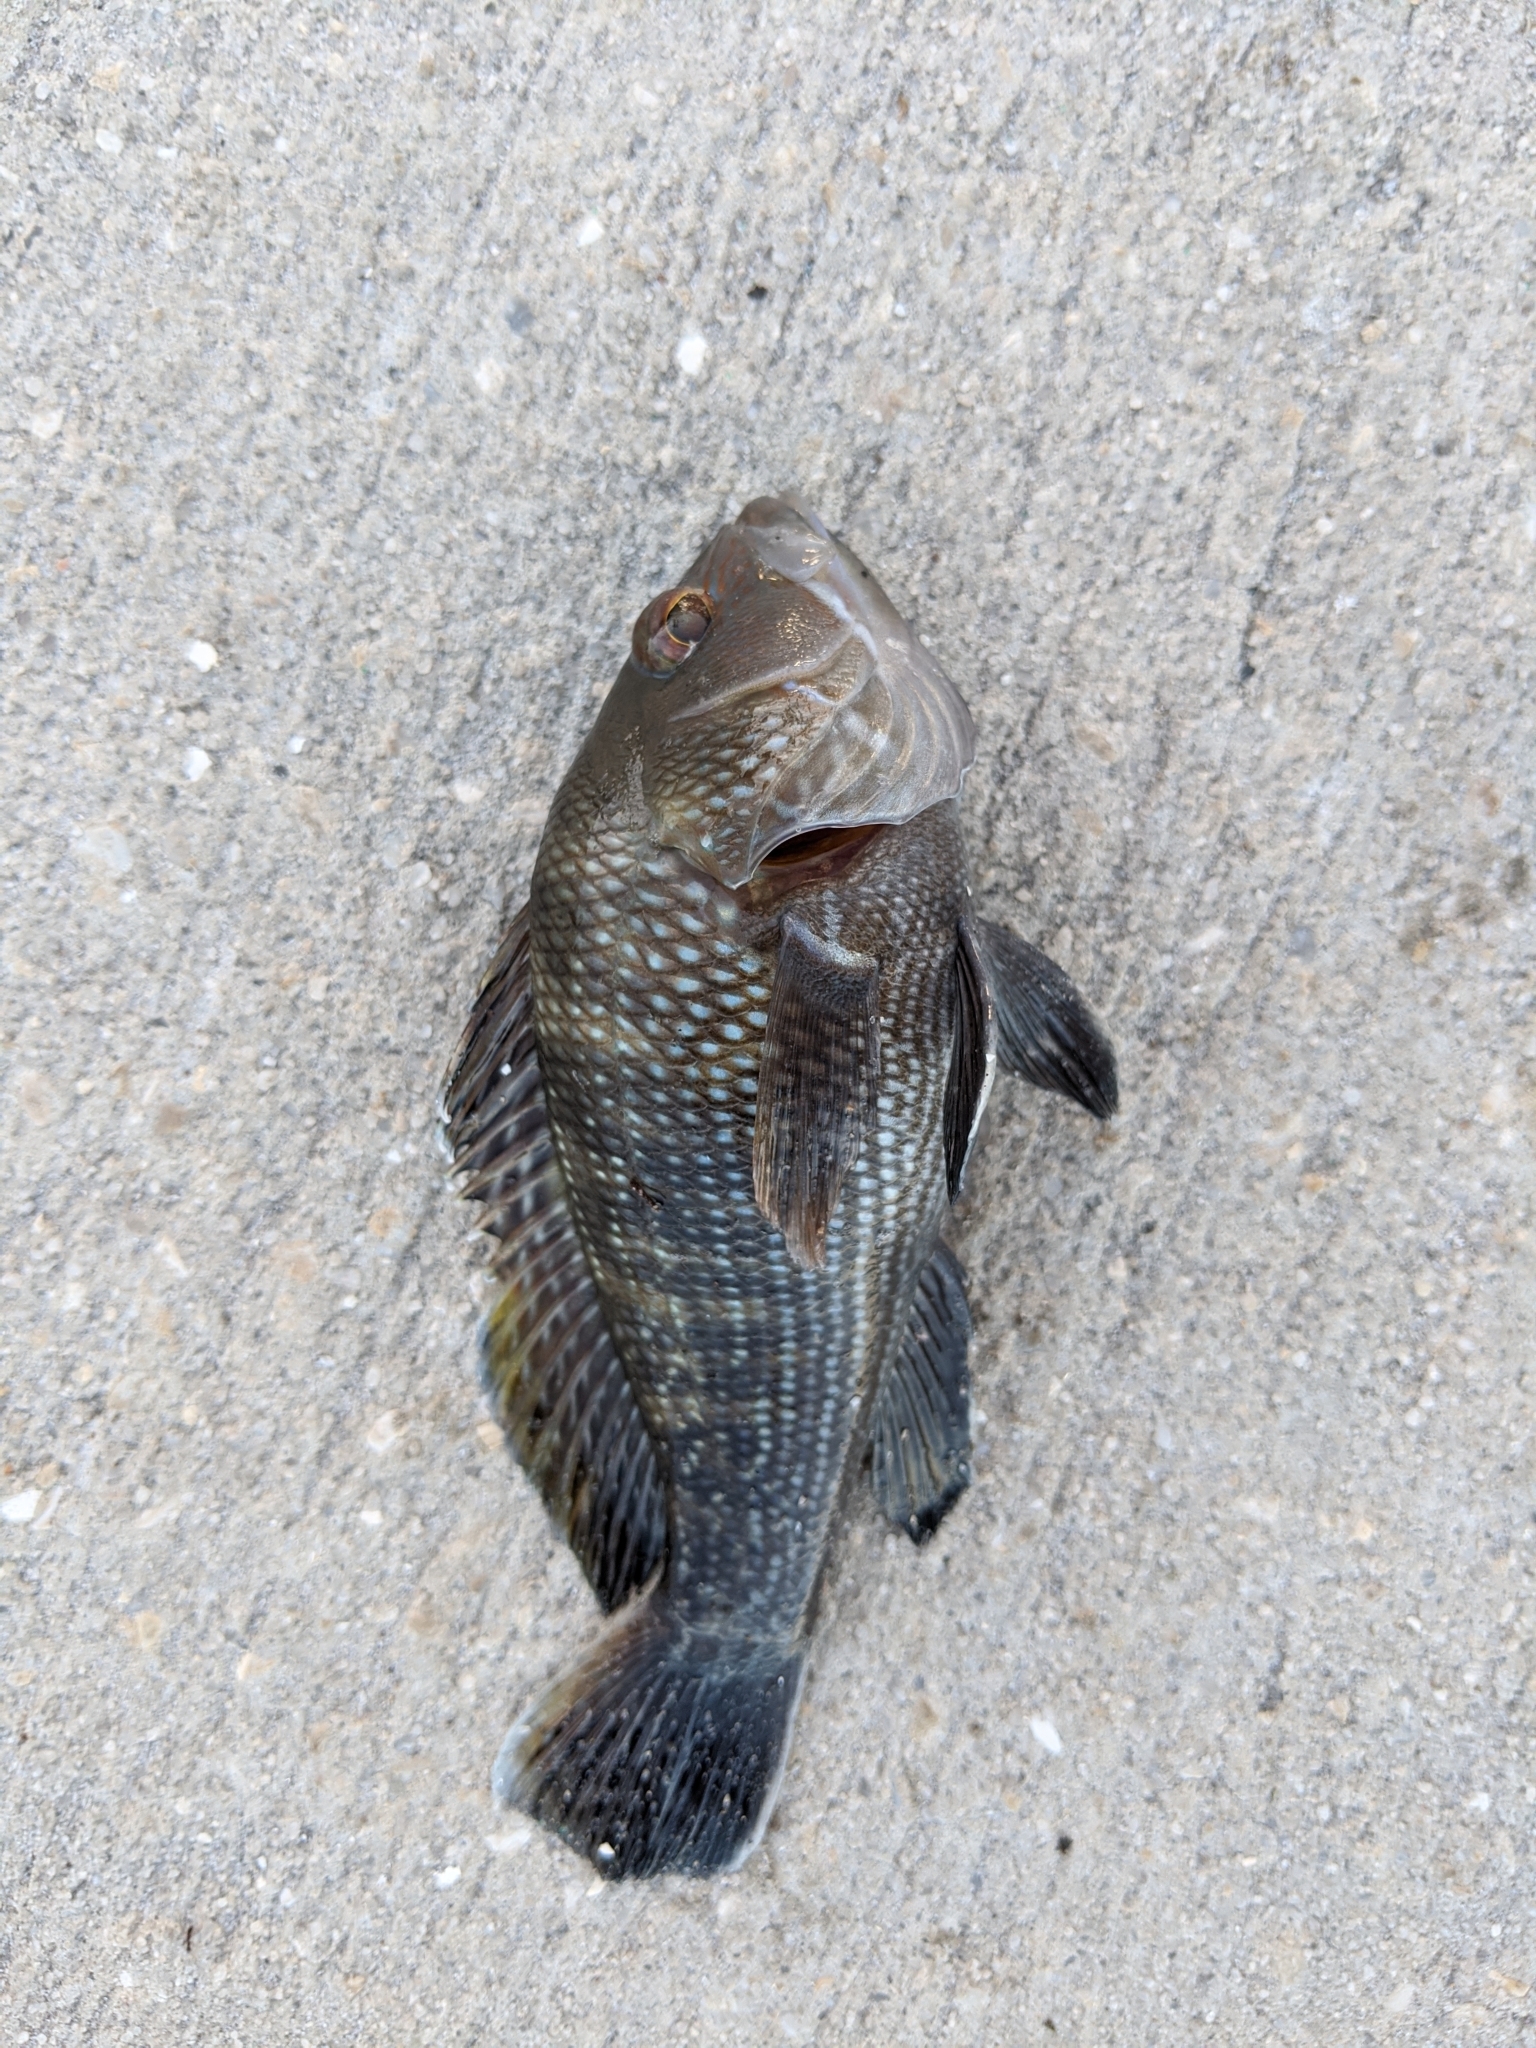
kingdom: Animalia
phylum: Chordata
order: Perciformes
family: Serranidae
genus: Centropristis
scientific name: Centropristis striata
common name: Black sea bass
